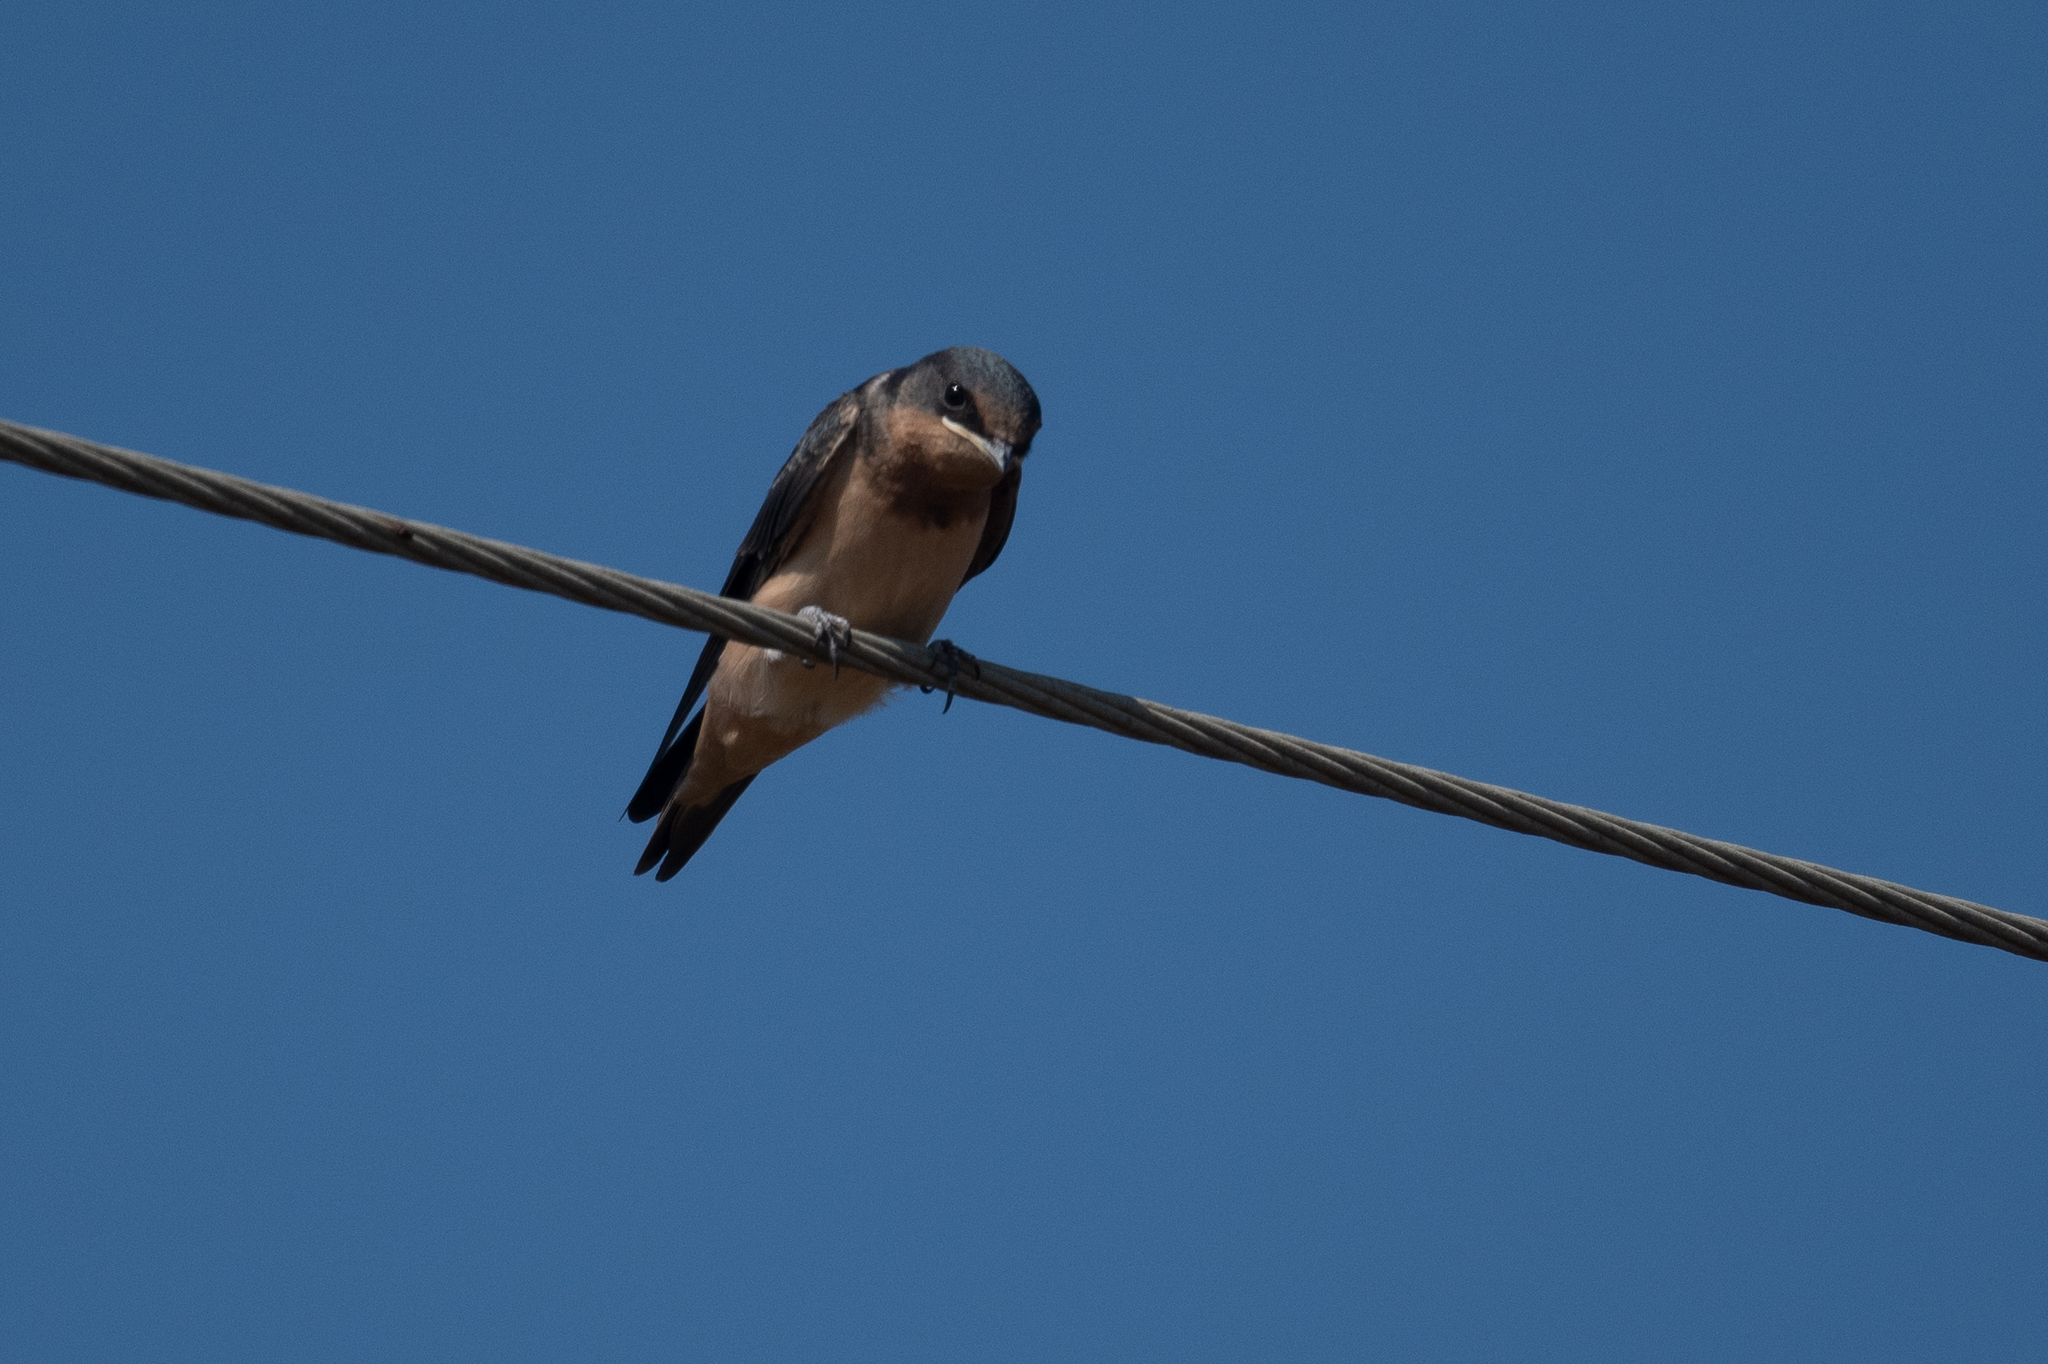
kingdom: Animalia
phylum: Chordata
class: Aves
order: Passeriformes
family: Hirundinidae
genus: Hirundo
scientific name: Hirundo rustica
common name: Barn swallow
